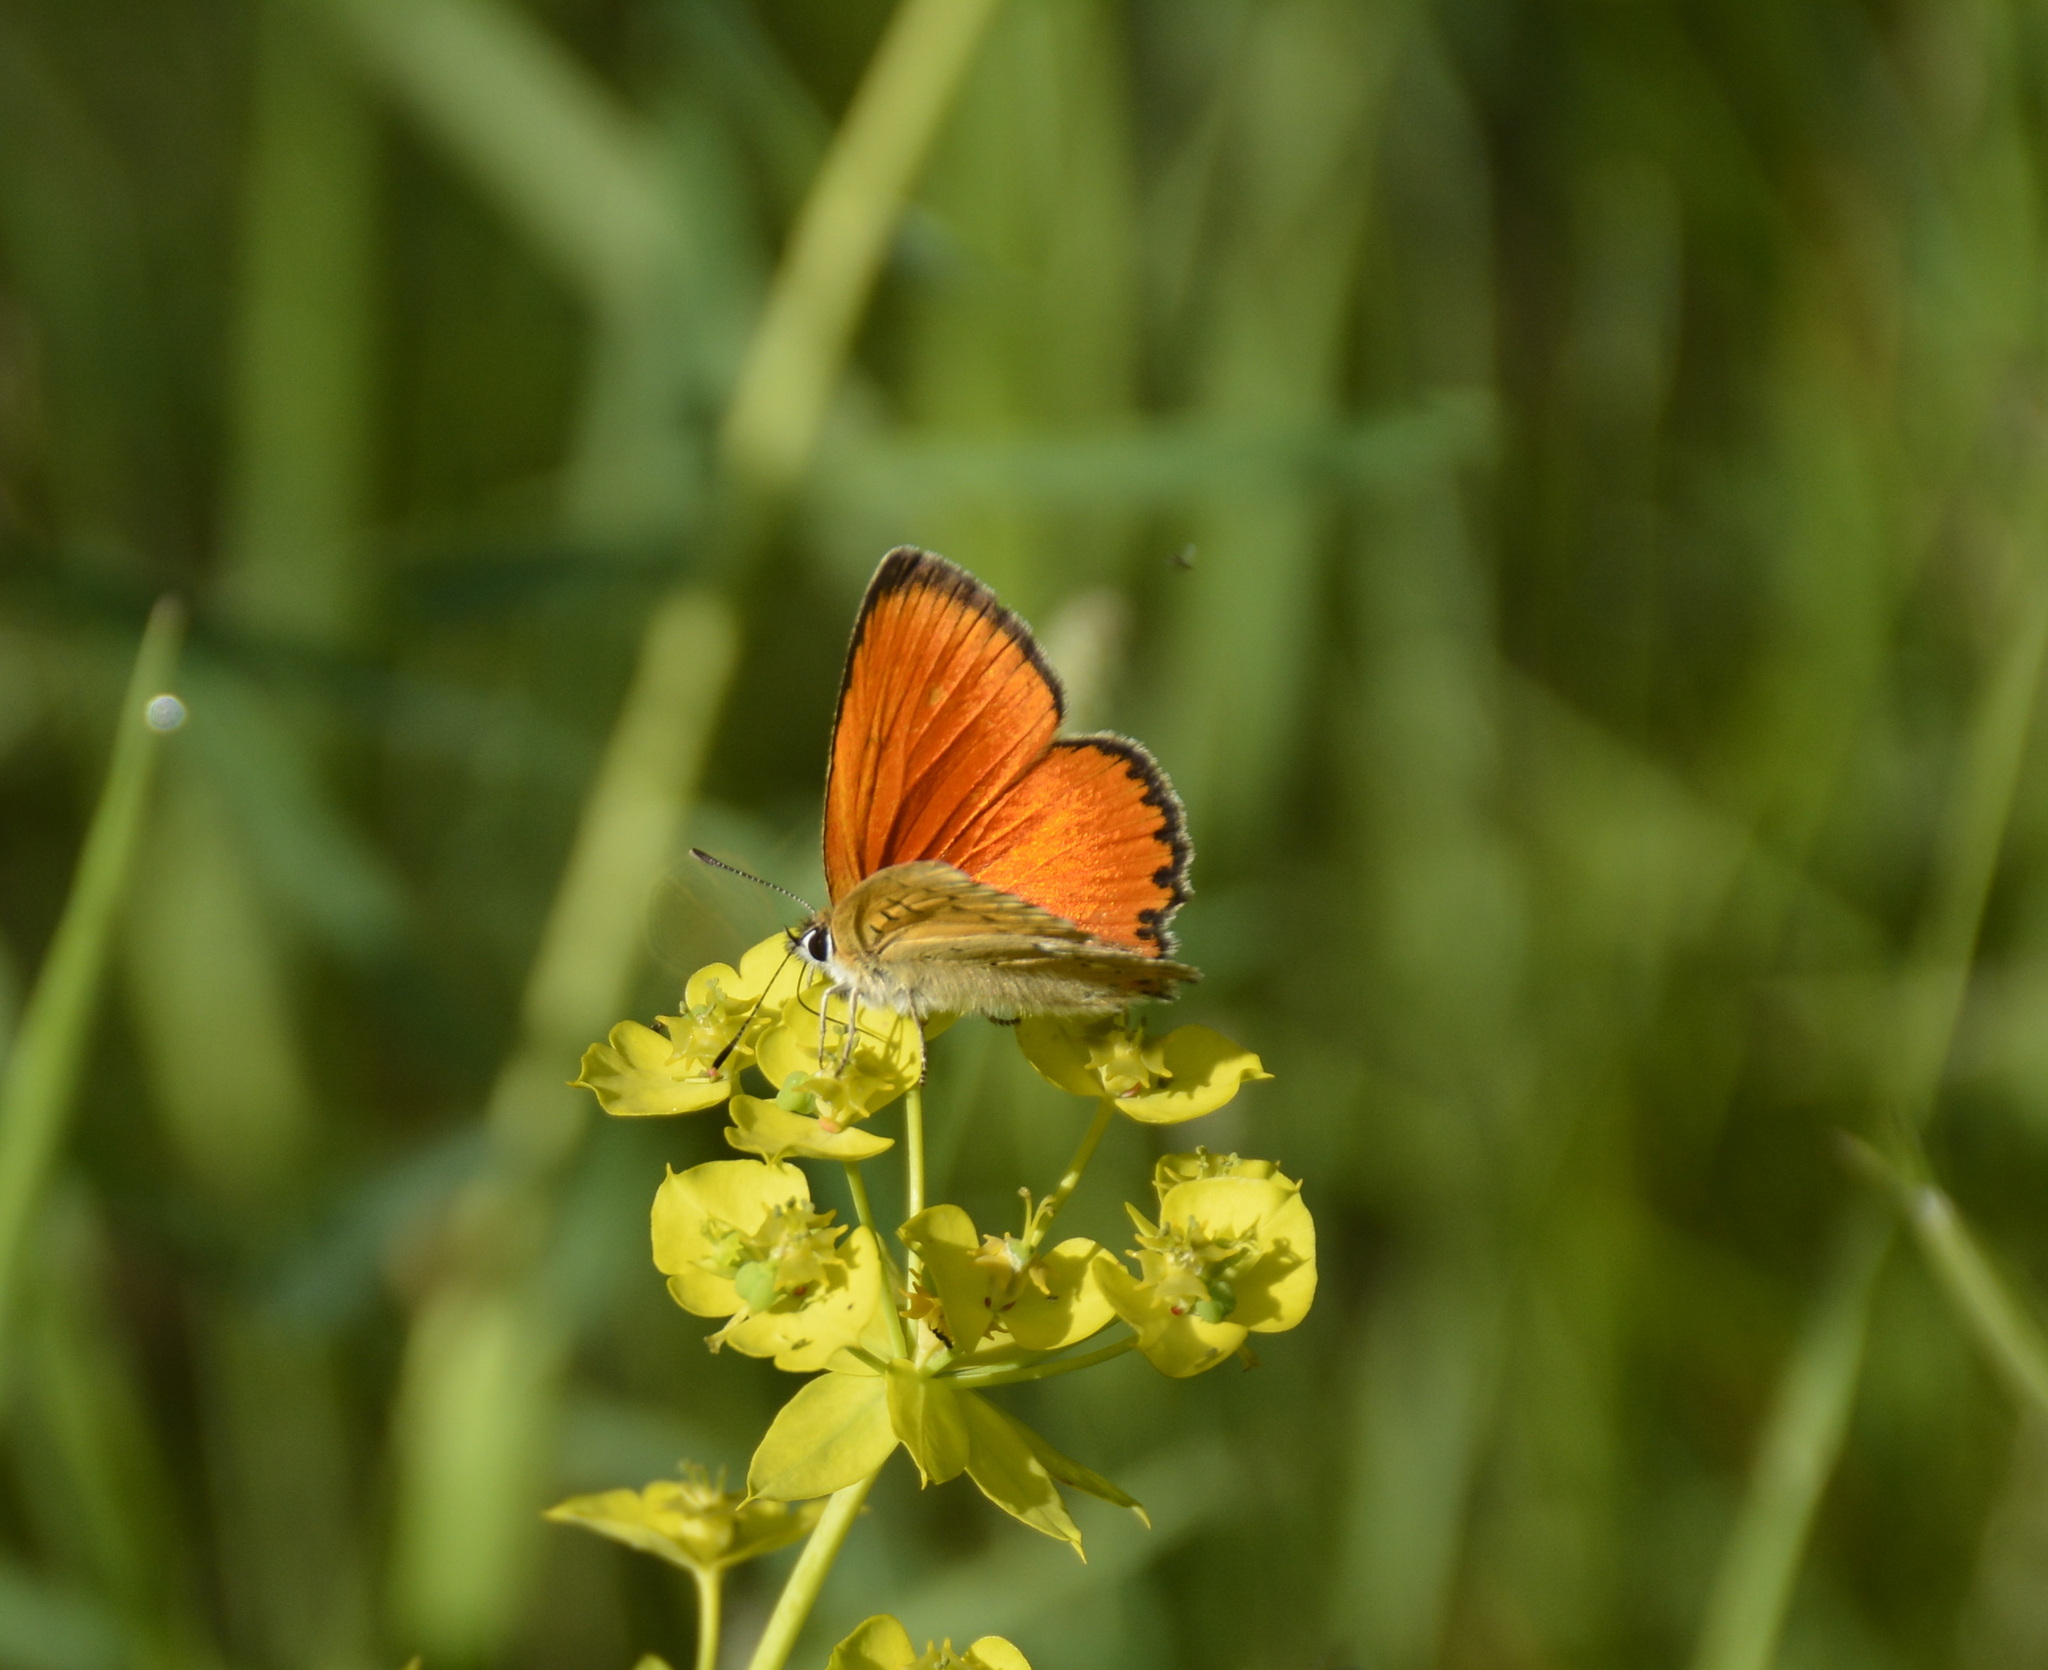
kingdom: Animalia
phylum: Arthropoda
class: Insecta
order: Lepidoptera
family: Lycaenidae
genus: Lycaena
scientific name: Lycaena virgaureae
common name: Scarce copper
